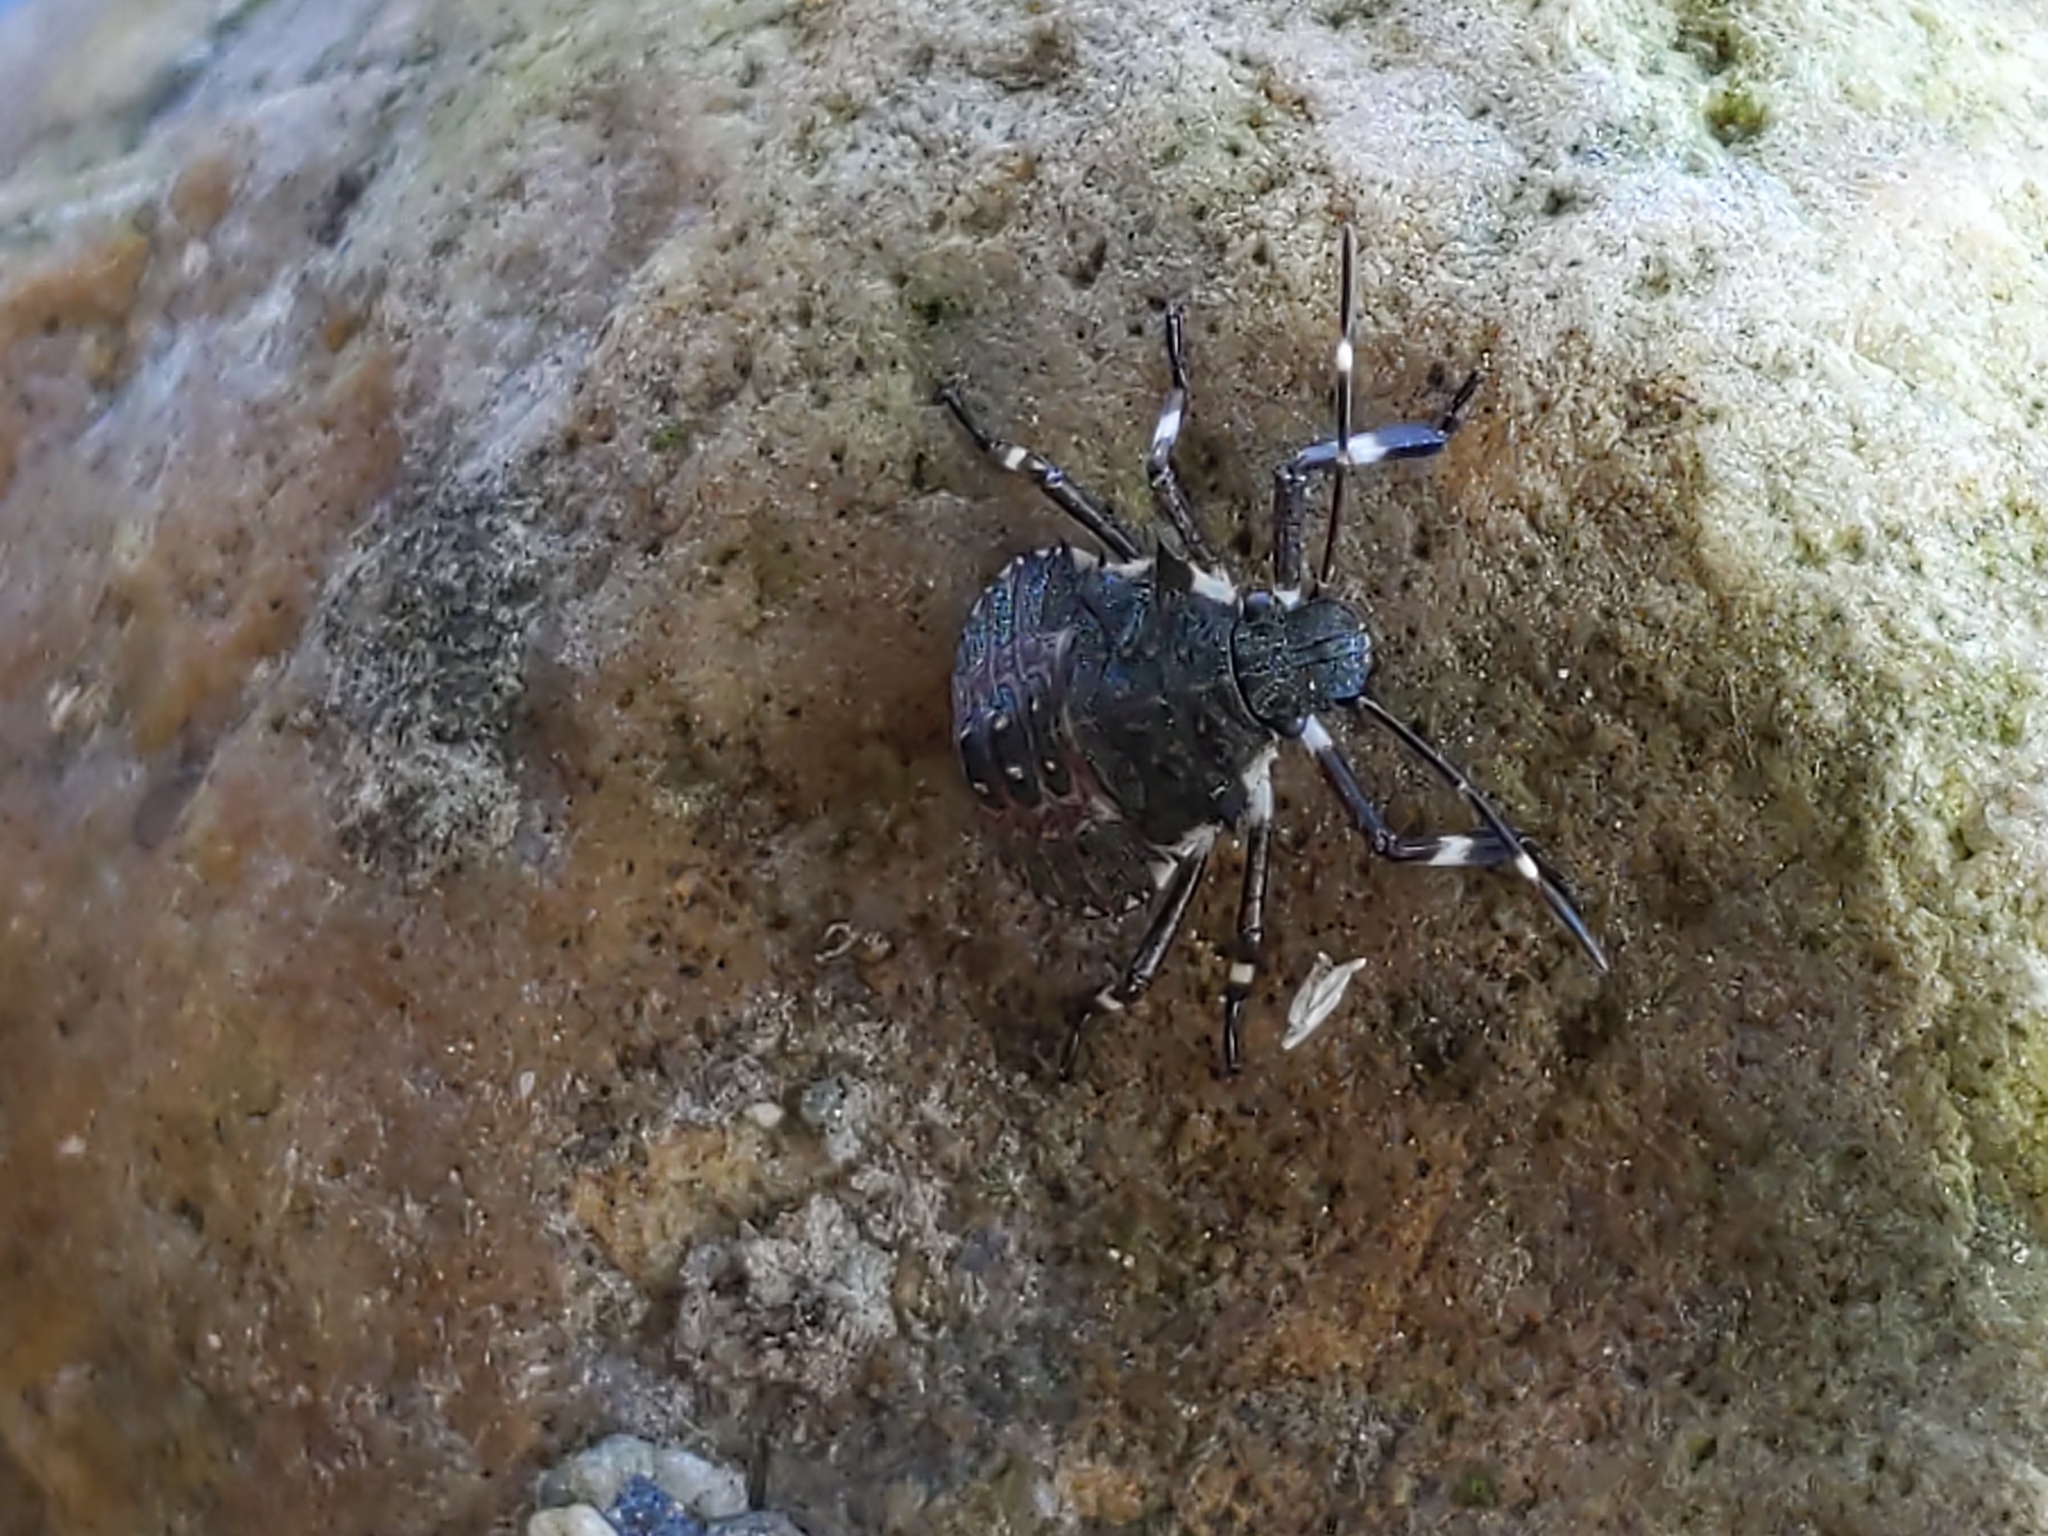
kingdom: Animalia
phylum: Arthropoda
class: Insecta
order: Hemiptera
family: Pentatomidae
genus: Halyomorpha
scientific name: Halyomorpha halys
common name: Brown marmorated stink bug
